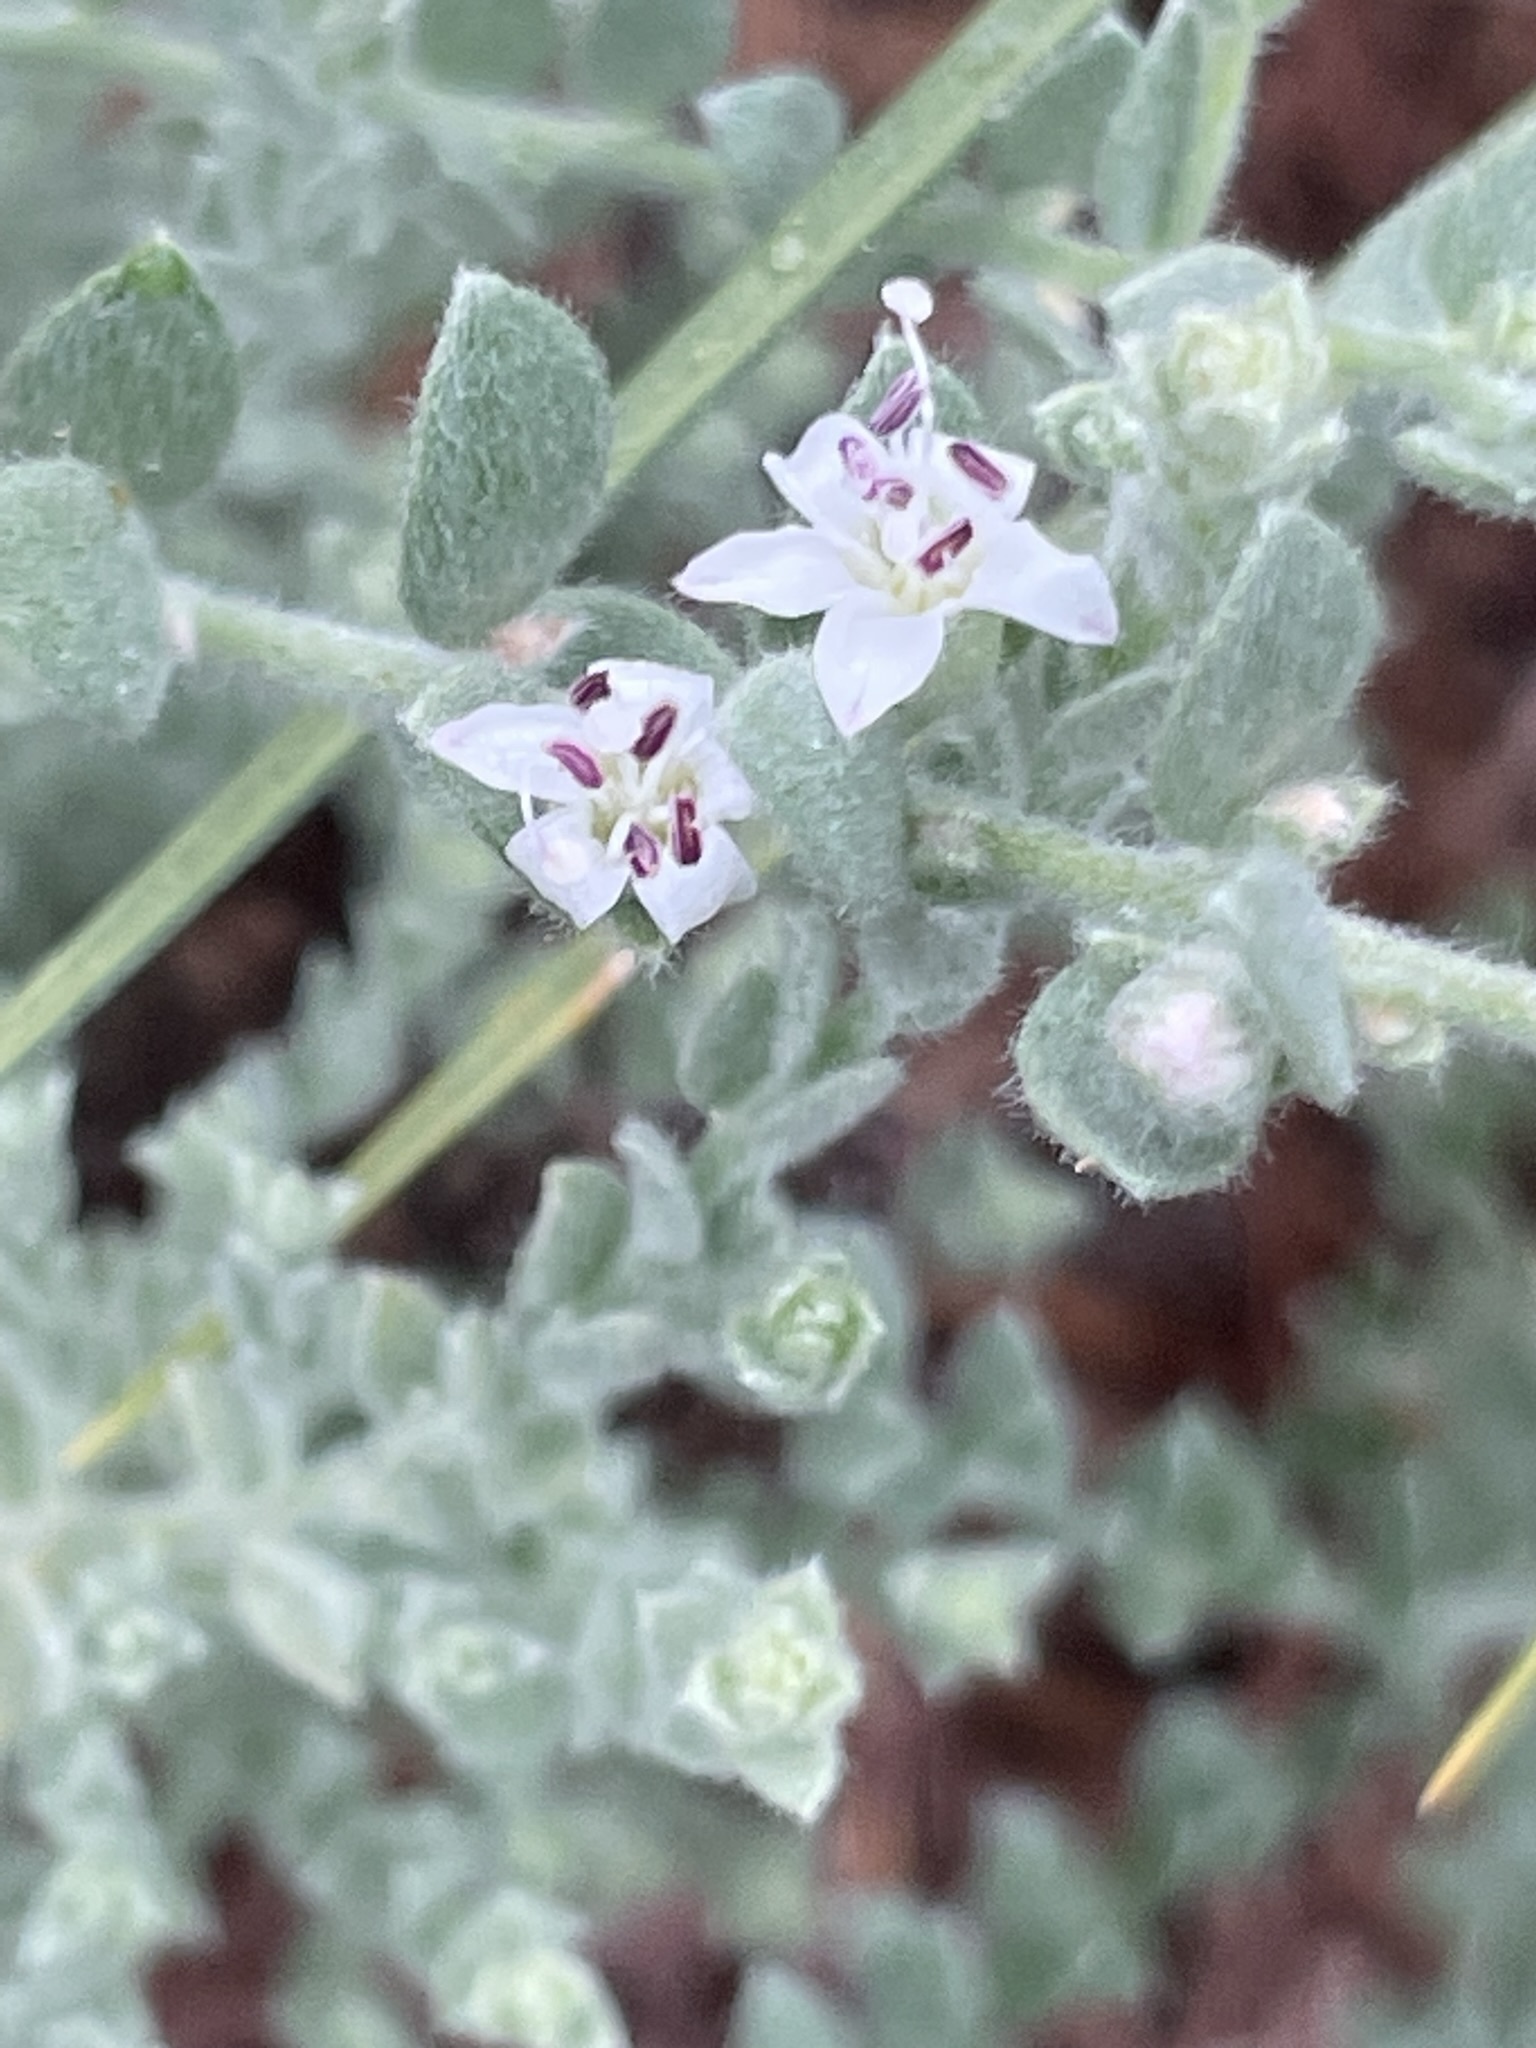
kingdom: Plantae
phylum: Tracheophyta
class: Magnoliopsida
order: Solanales
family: Convolvulaceae
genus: Cressa
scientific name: Cressa truxillensis
